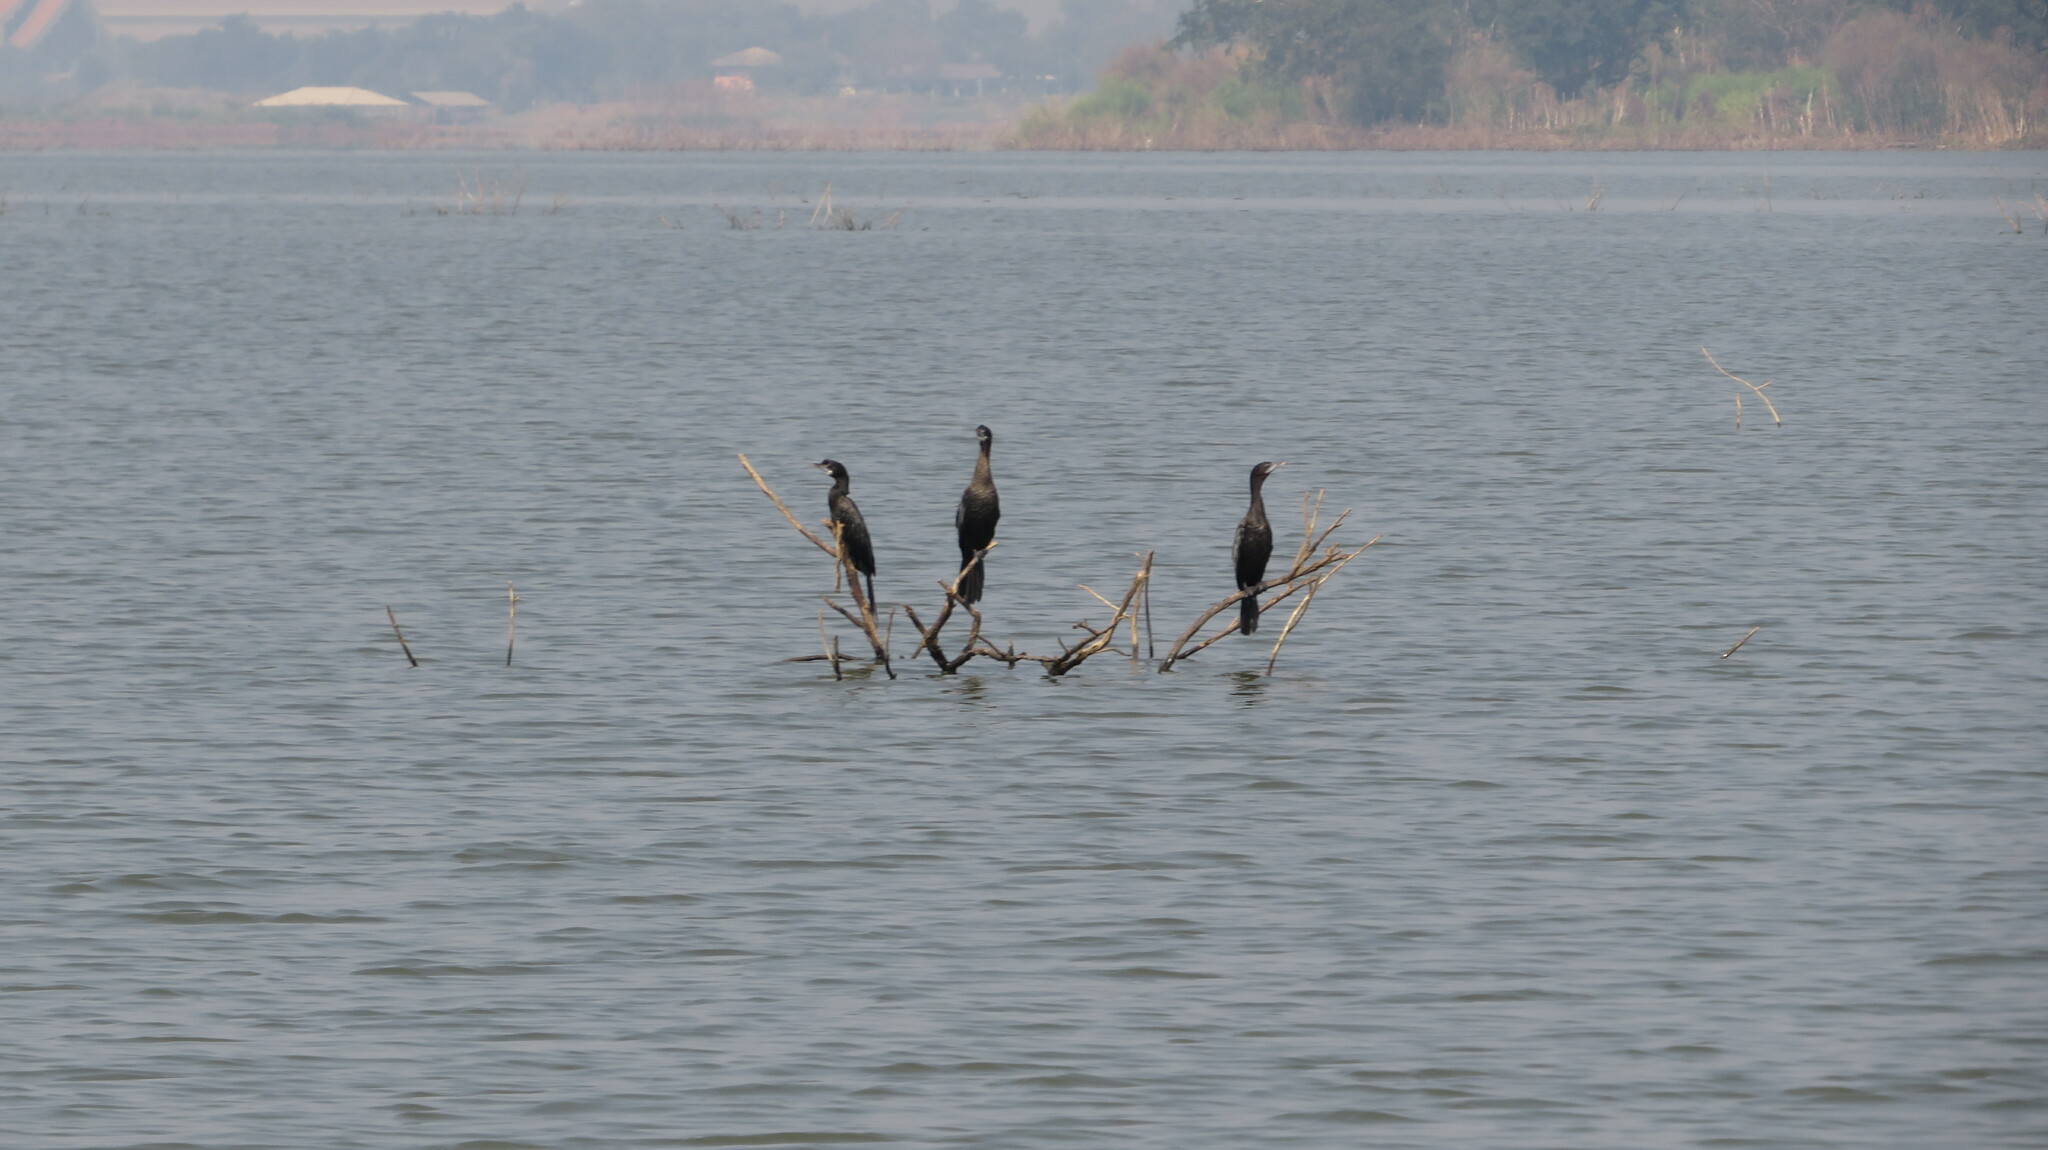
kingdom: Animalia
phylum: Chordata
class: Aves
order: Suliformes
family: Phalacrocoracidae
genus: Microcarbo
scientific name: Microcarbo niger
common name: Little cormorant
